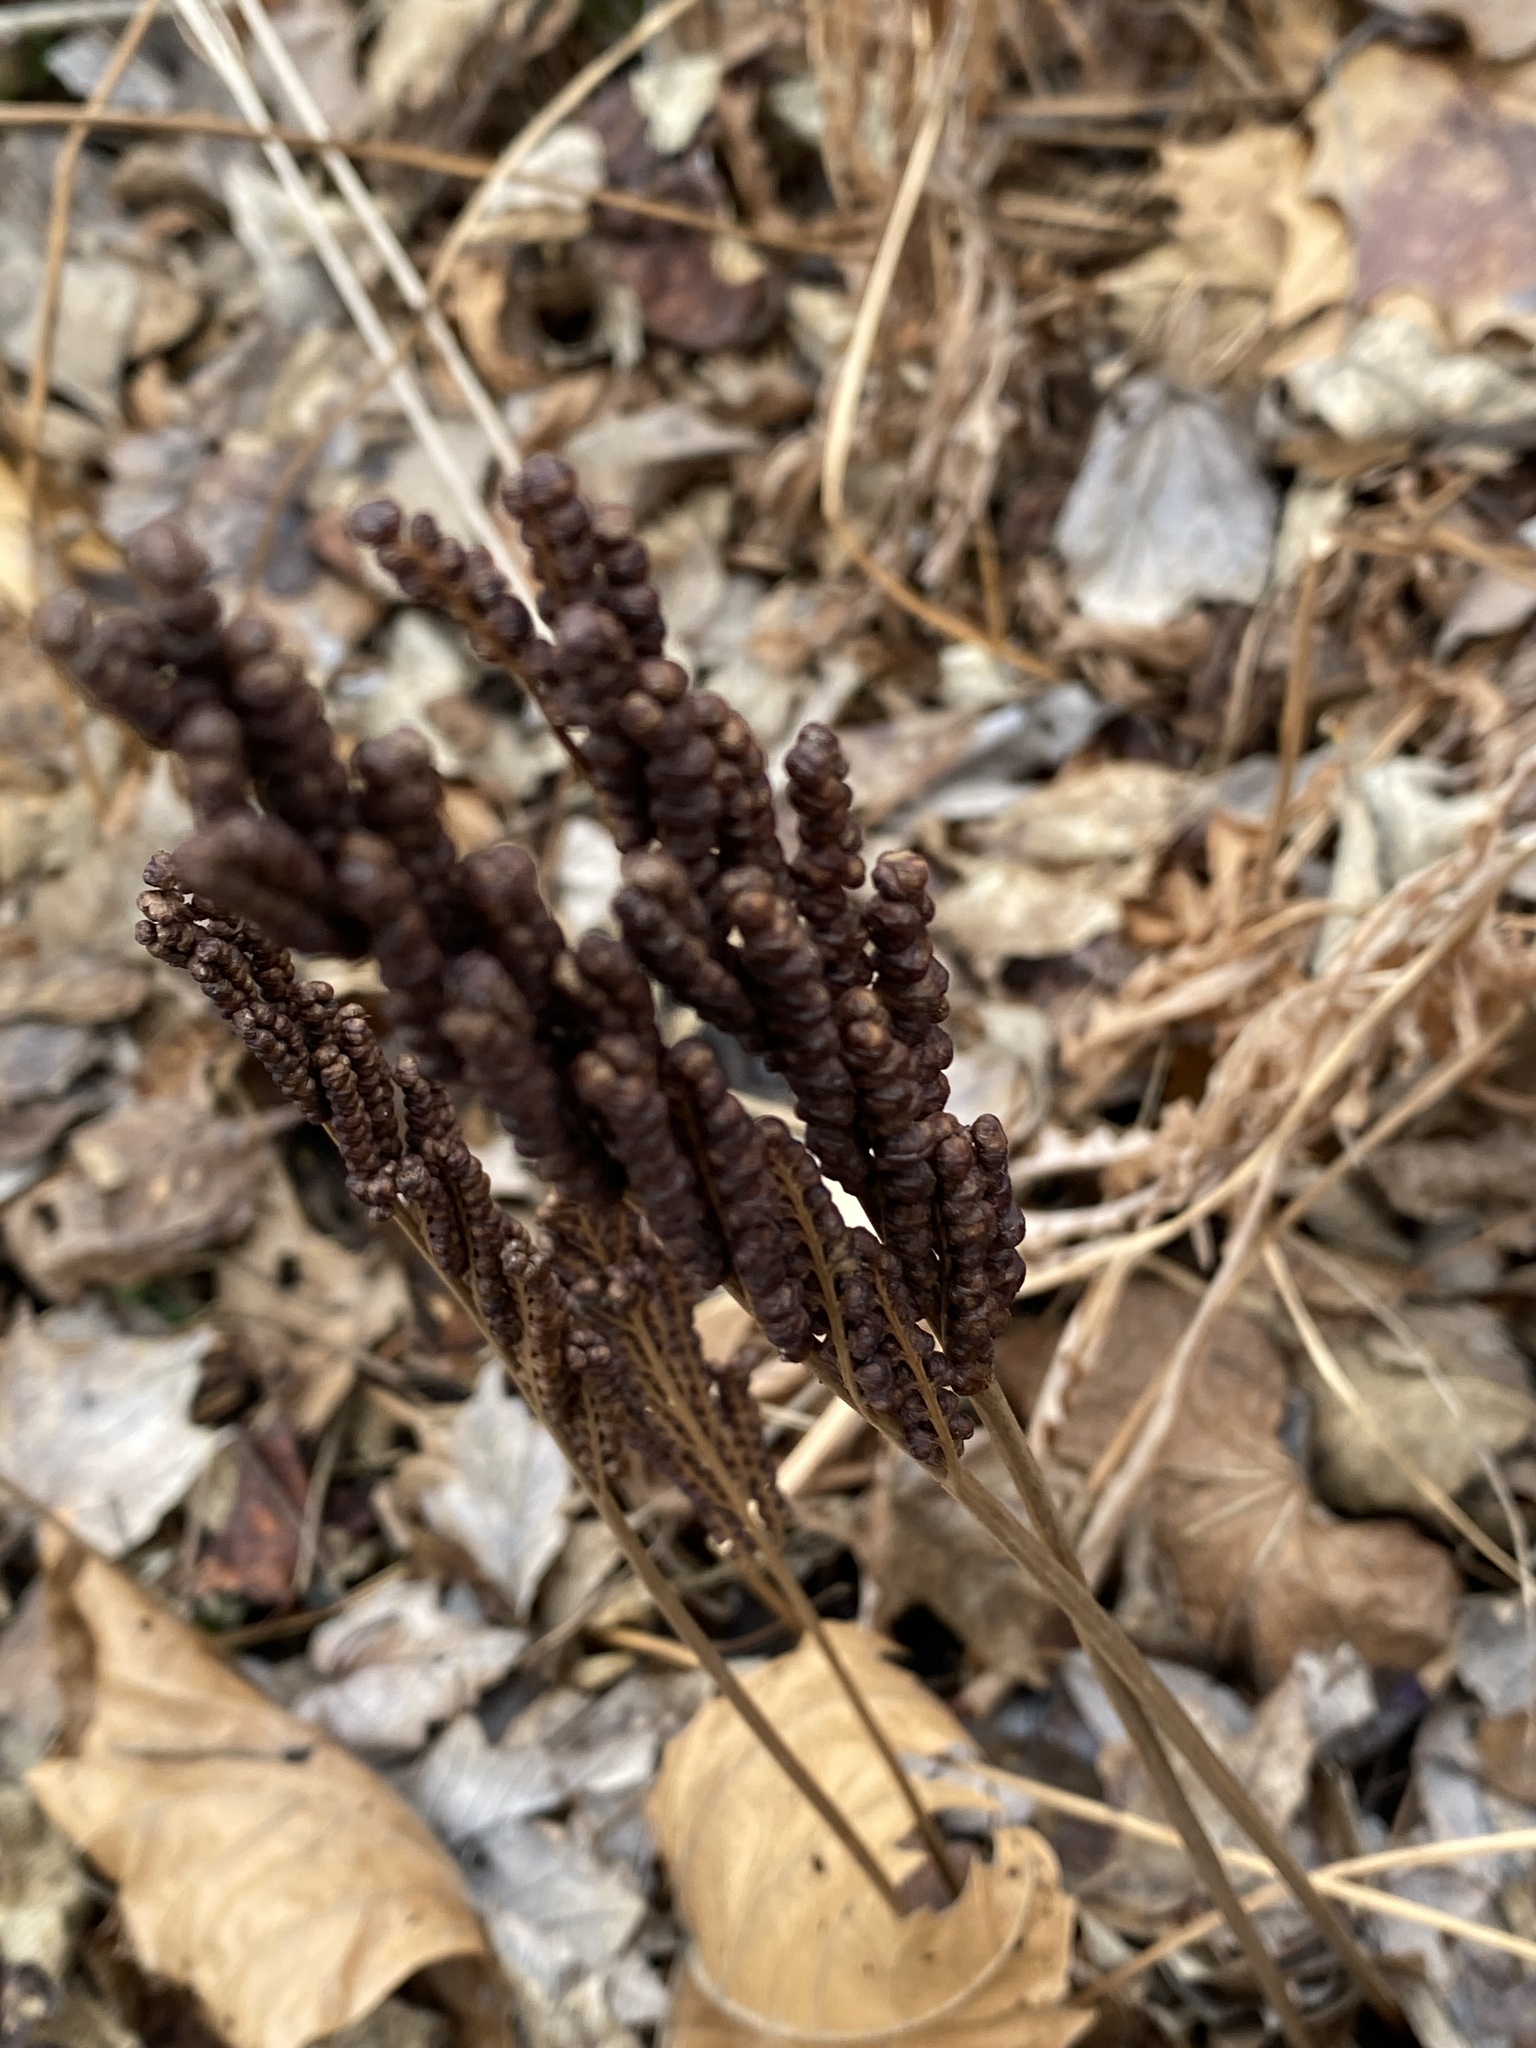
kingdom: Plantae
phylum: Tracheophyta
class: Polypodiopsida
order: Polypodiales
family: Onocleaceae
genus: Onoclea
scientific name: Onoclea sensibilis
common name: Sensitive fern
